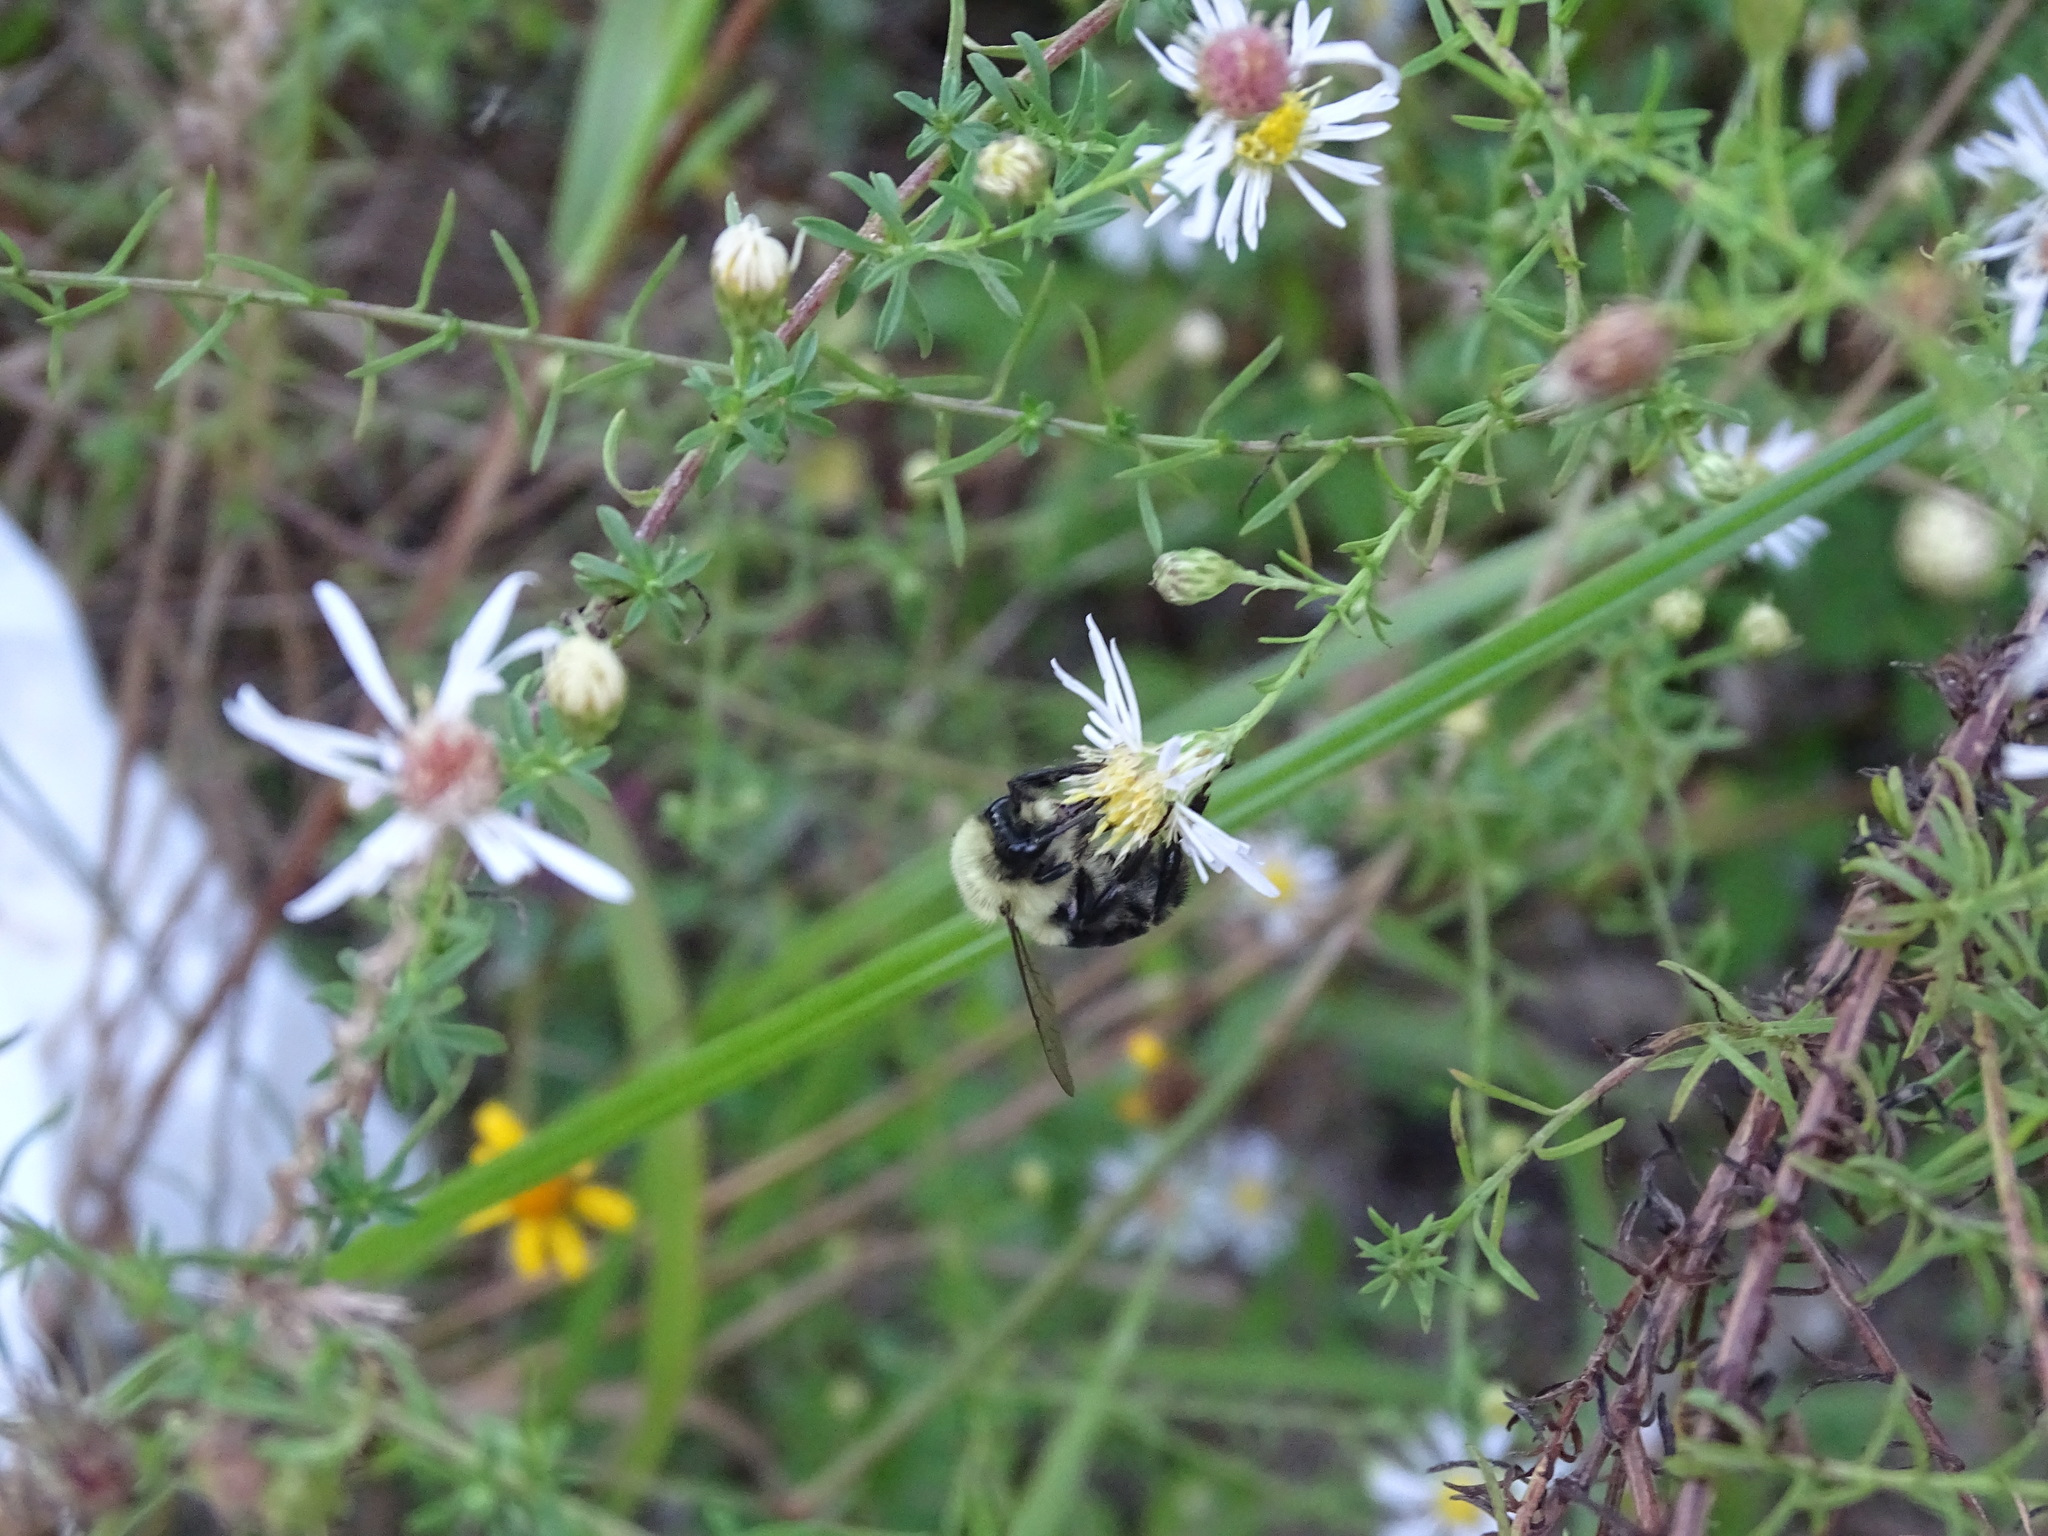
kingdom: Animalia
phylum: Arthropoda
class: Insecta
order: Hymenoptera
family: Apidae
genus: Bombus
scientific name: Bombus impatiens
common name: Common eastern bumble bee
